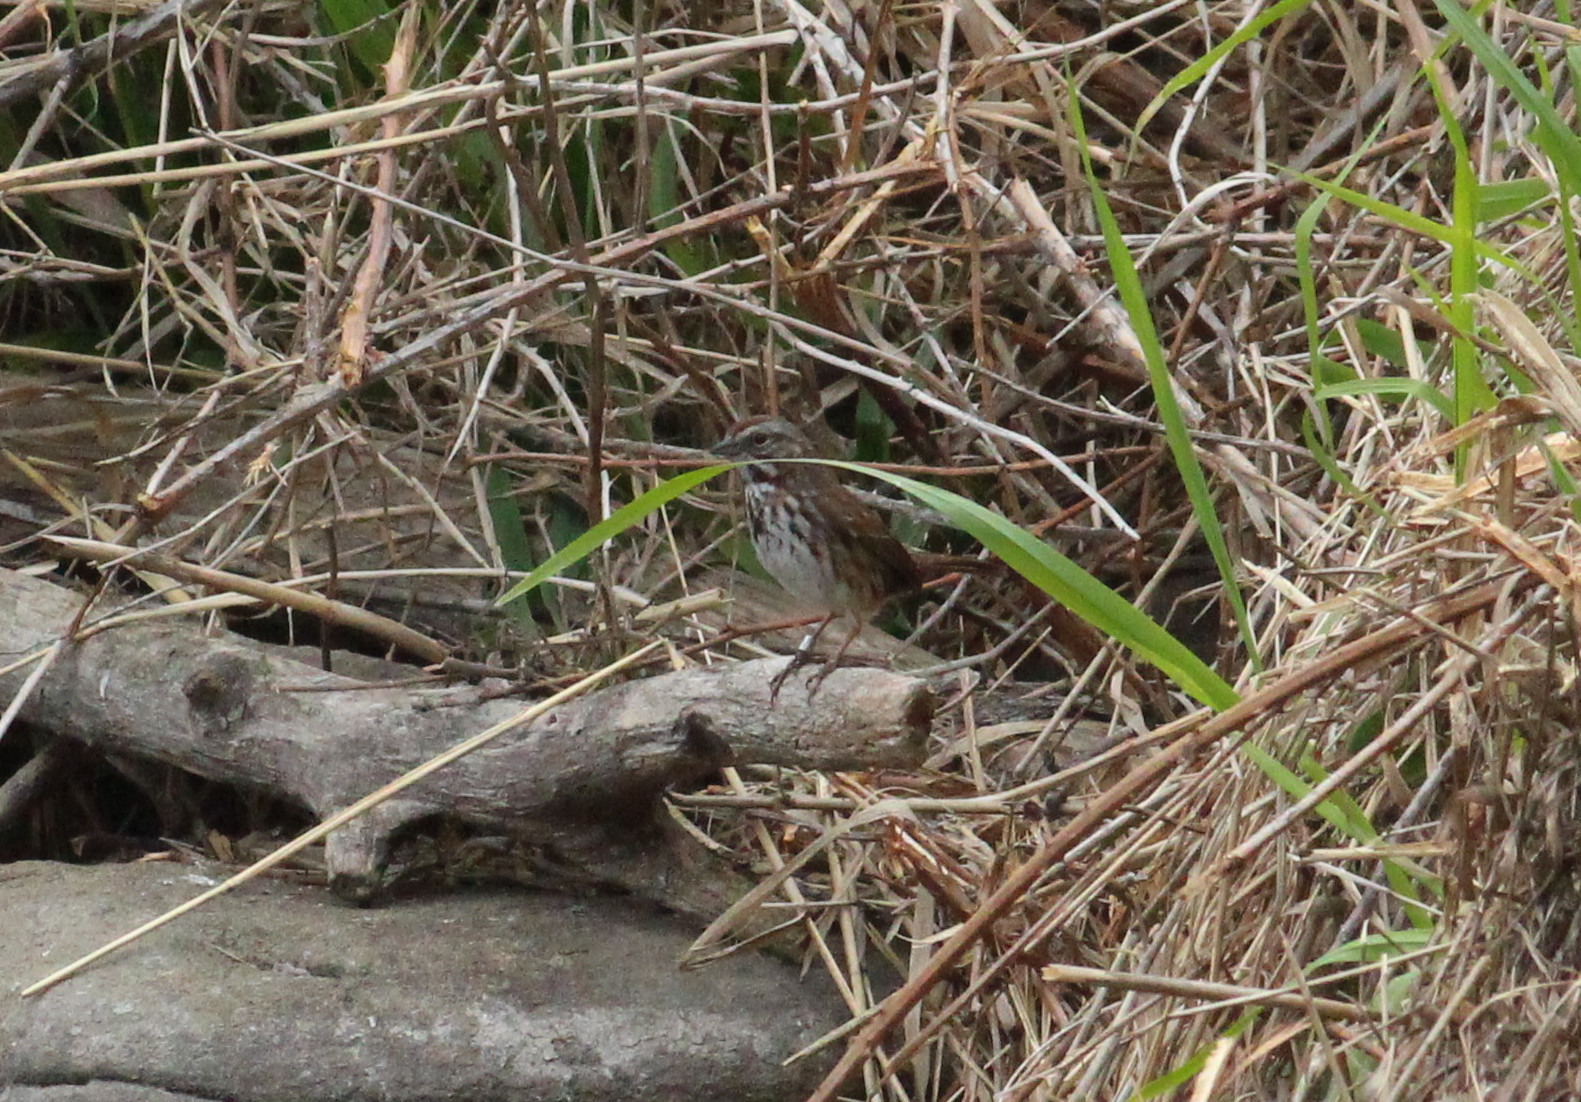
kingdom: Animalia
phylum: Chordata
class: Aves
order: Passeriformes
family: Passerellidae
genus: Melospiza
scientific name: Melospiza melodia
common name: Song sparrow
